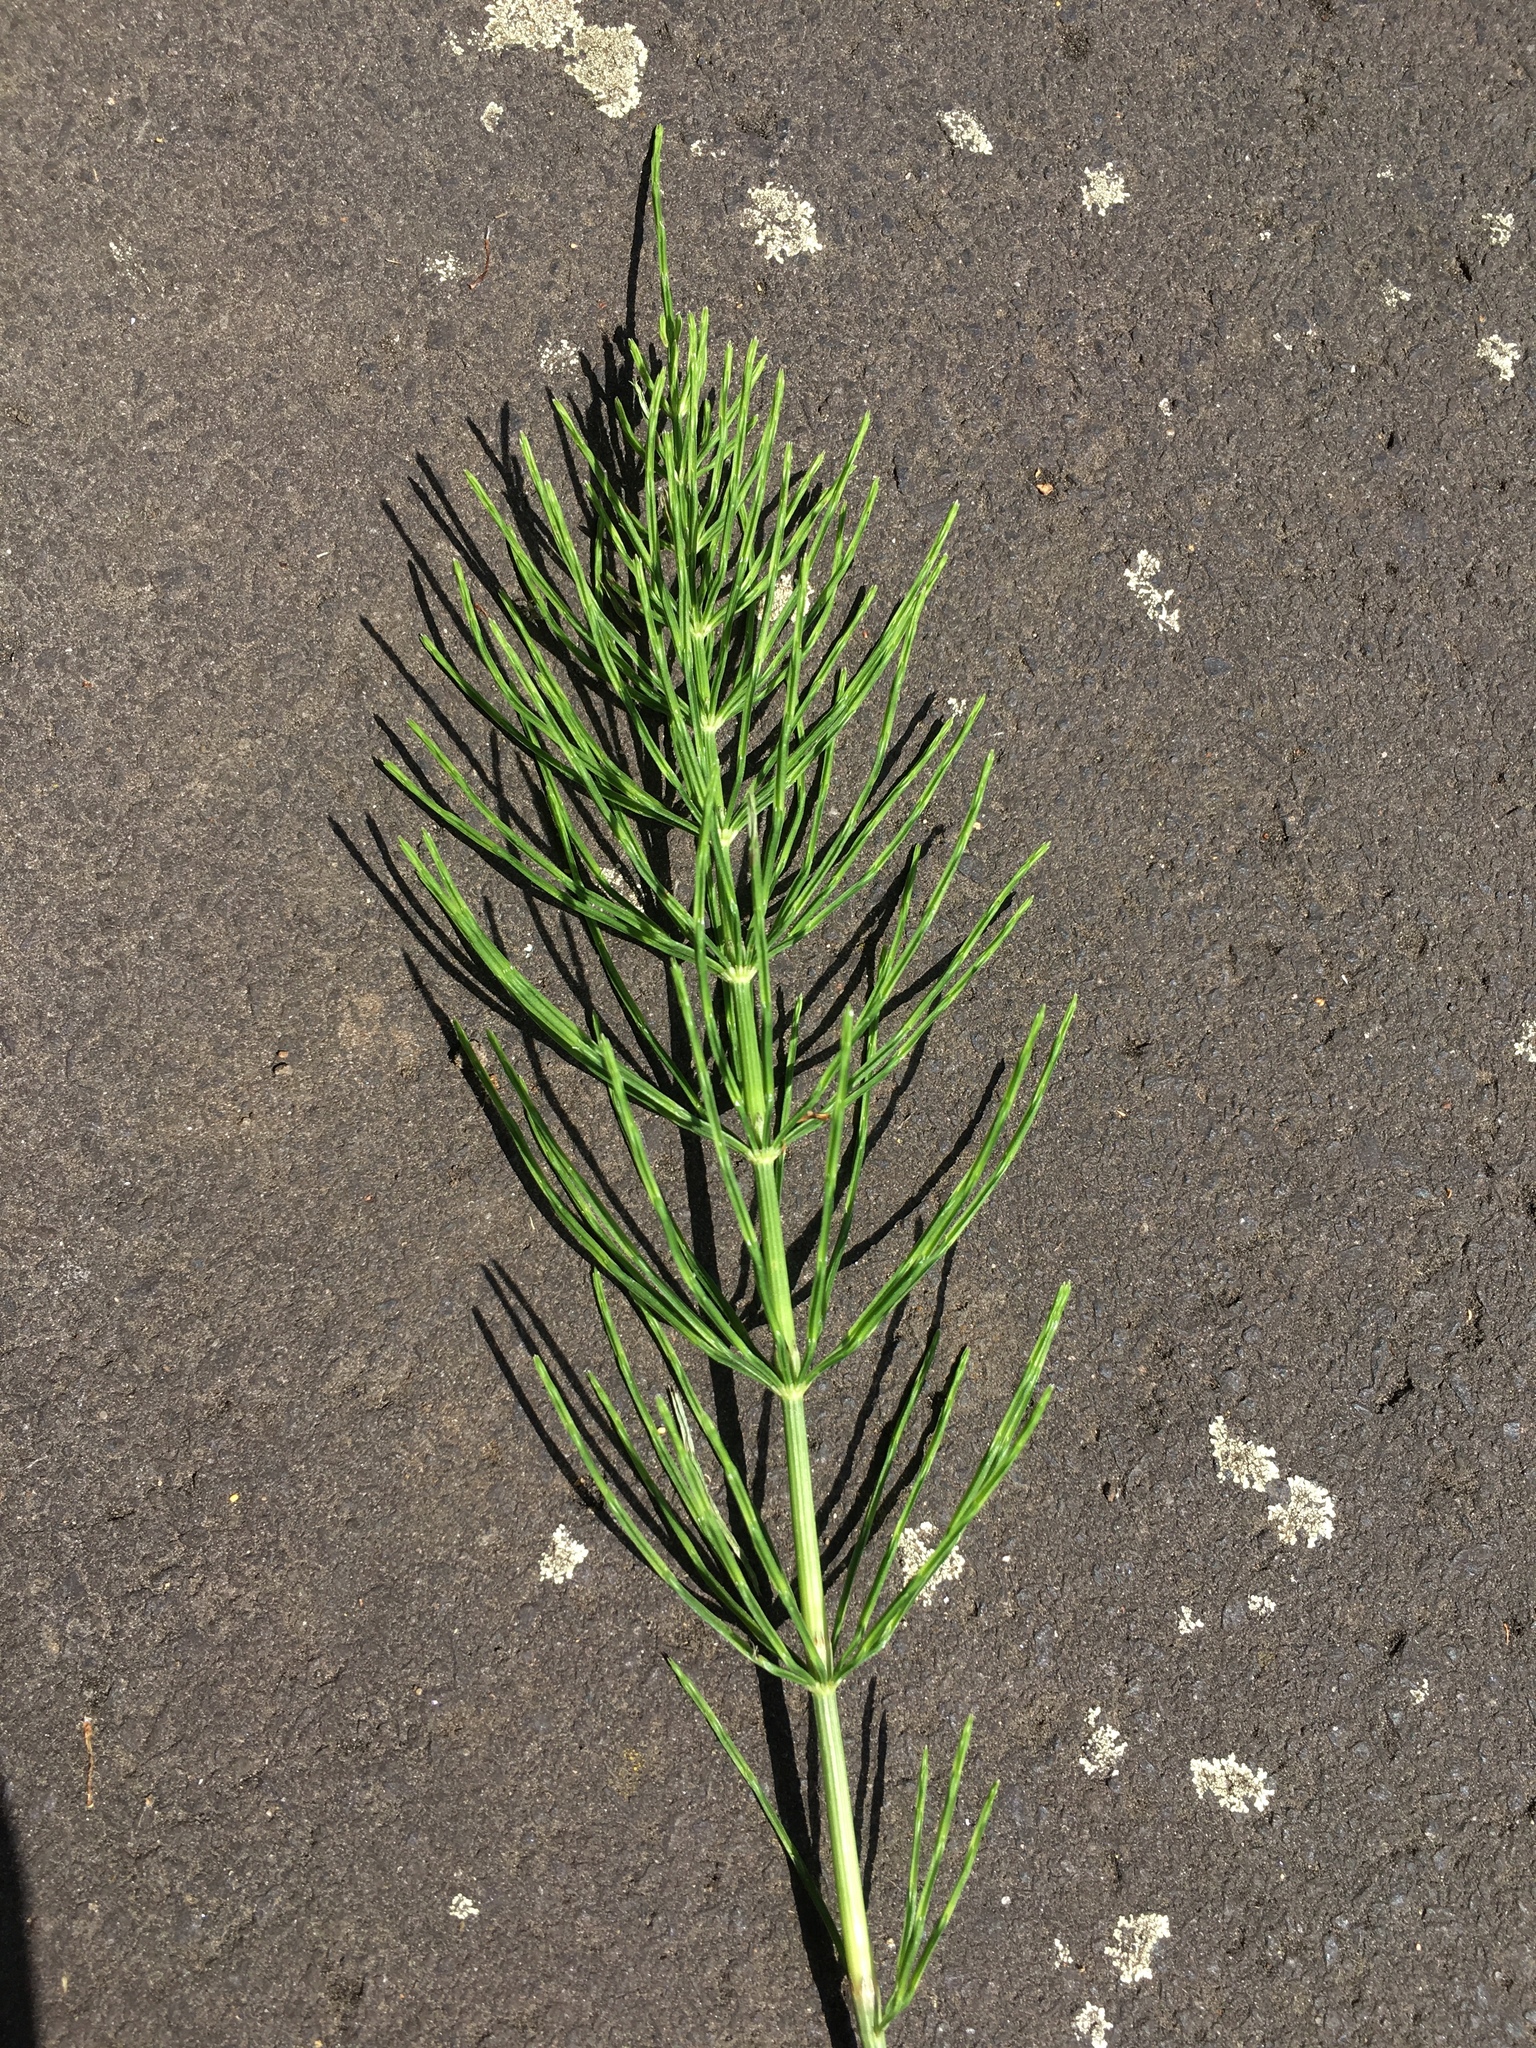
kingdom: Plantae
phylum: Tracheophyta
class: Polypodiopsida
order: Equisetales
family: Equisetaceae
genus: Equisetum
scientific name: Equisetum arvense
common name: Field horsetail
